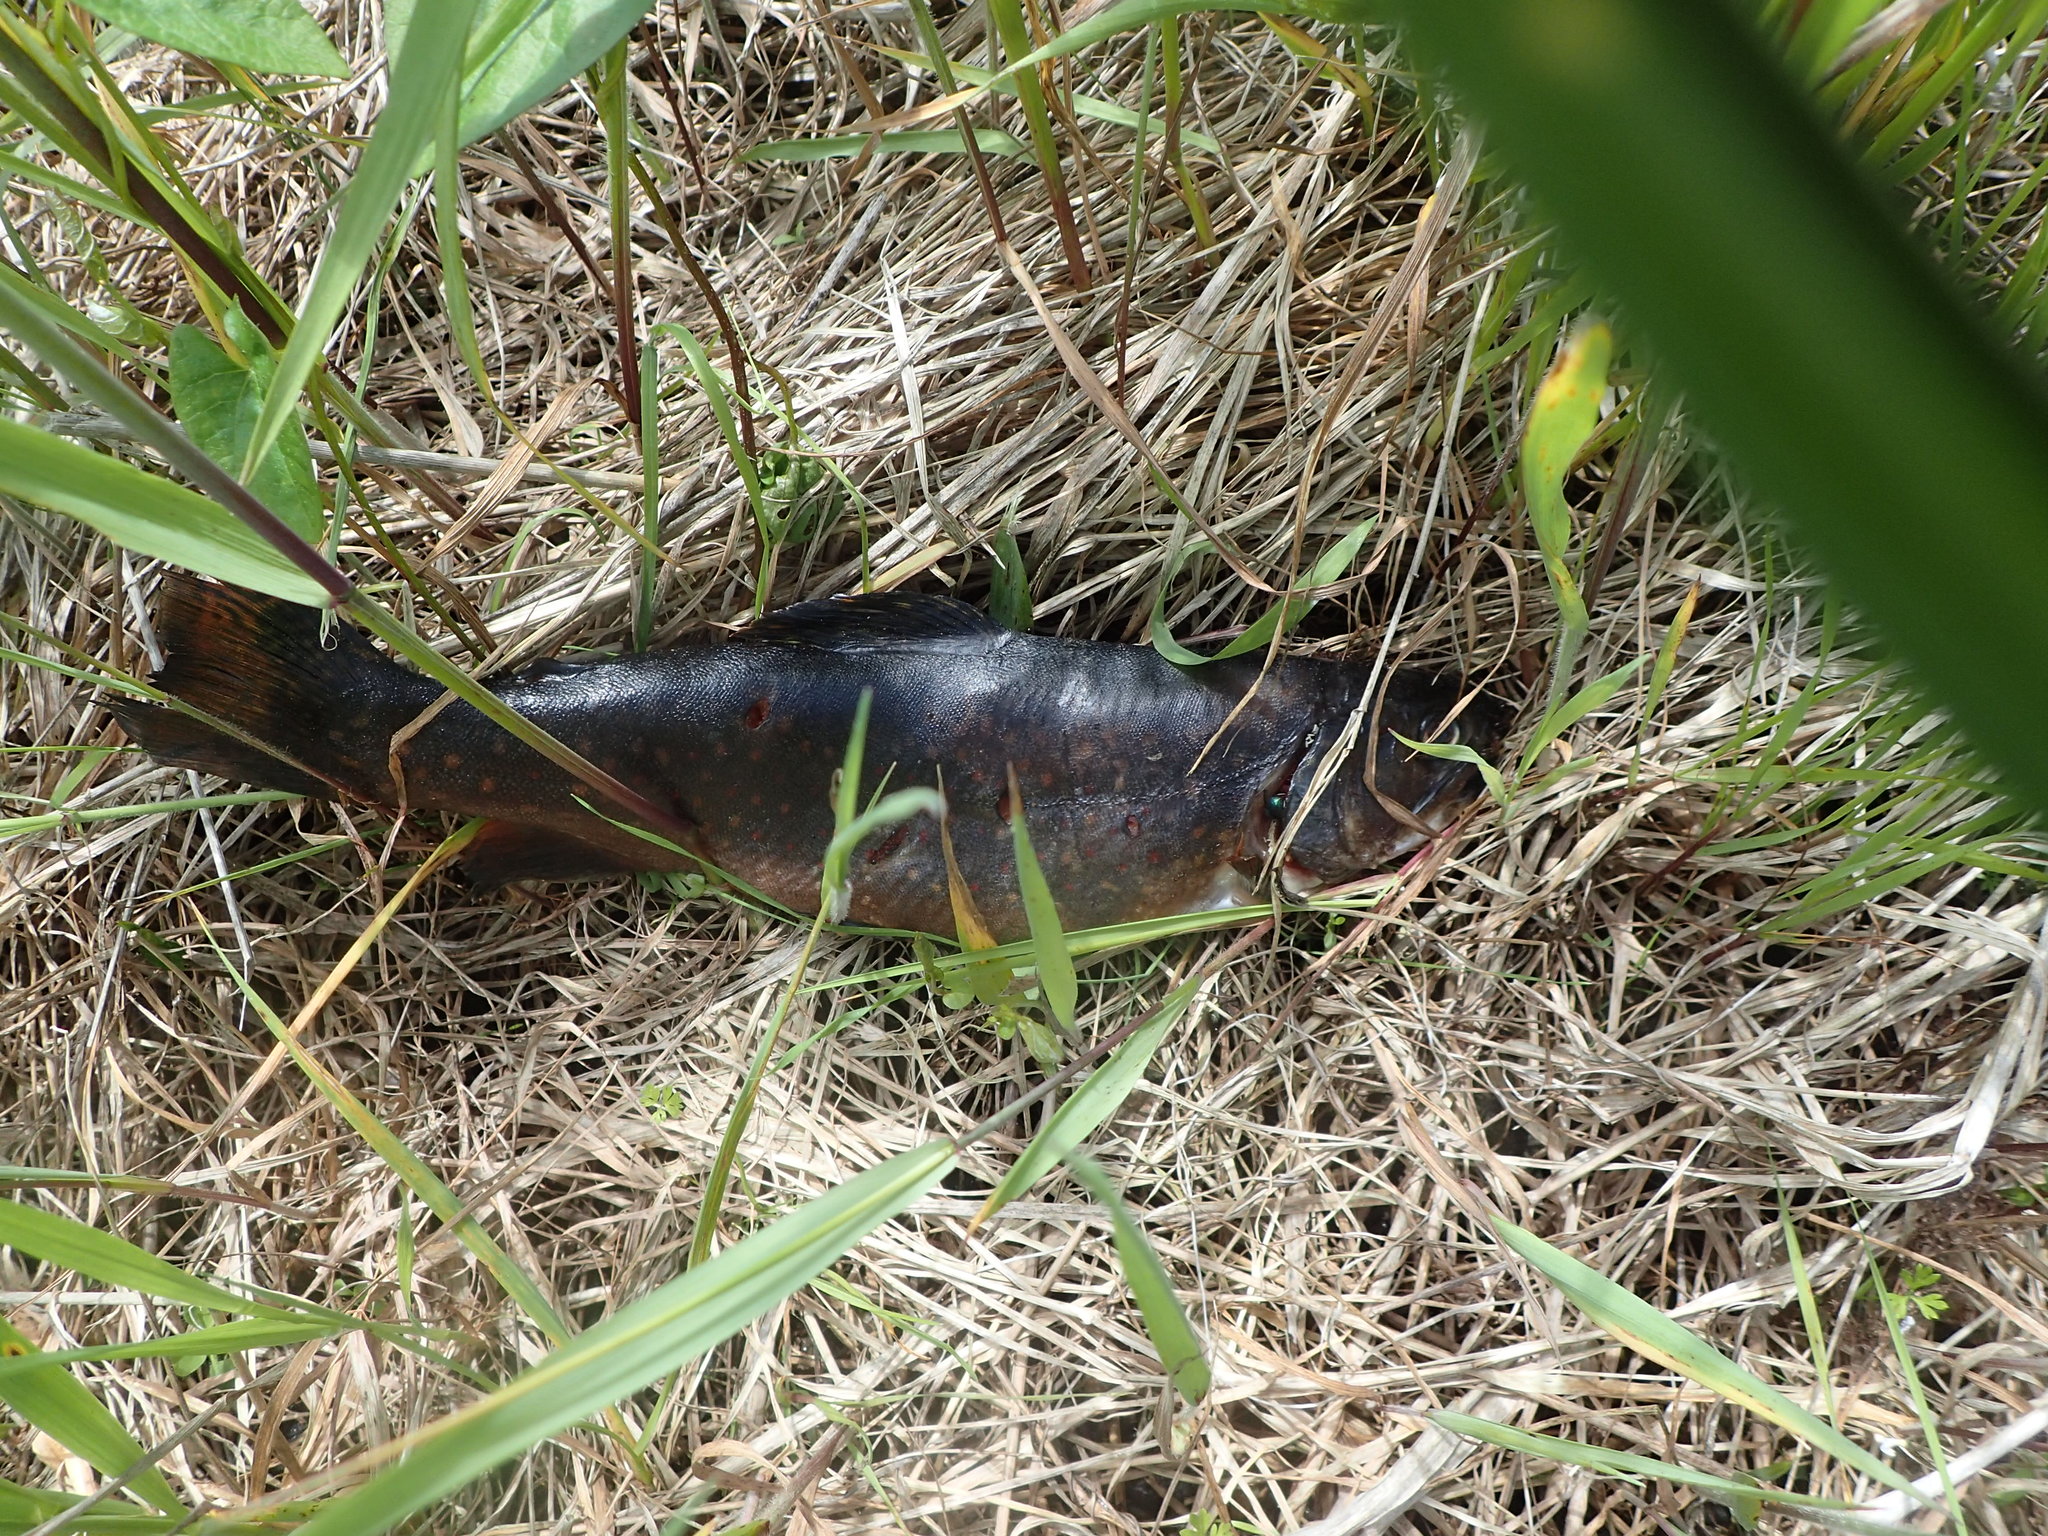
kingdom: Animalia
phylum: Chordata
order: Salmoniformes
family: Salmonidae
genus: Salvelinus
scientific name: Salvelinus fontinalis
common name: Brook trout
